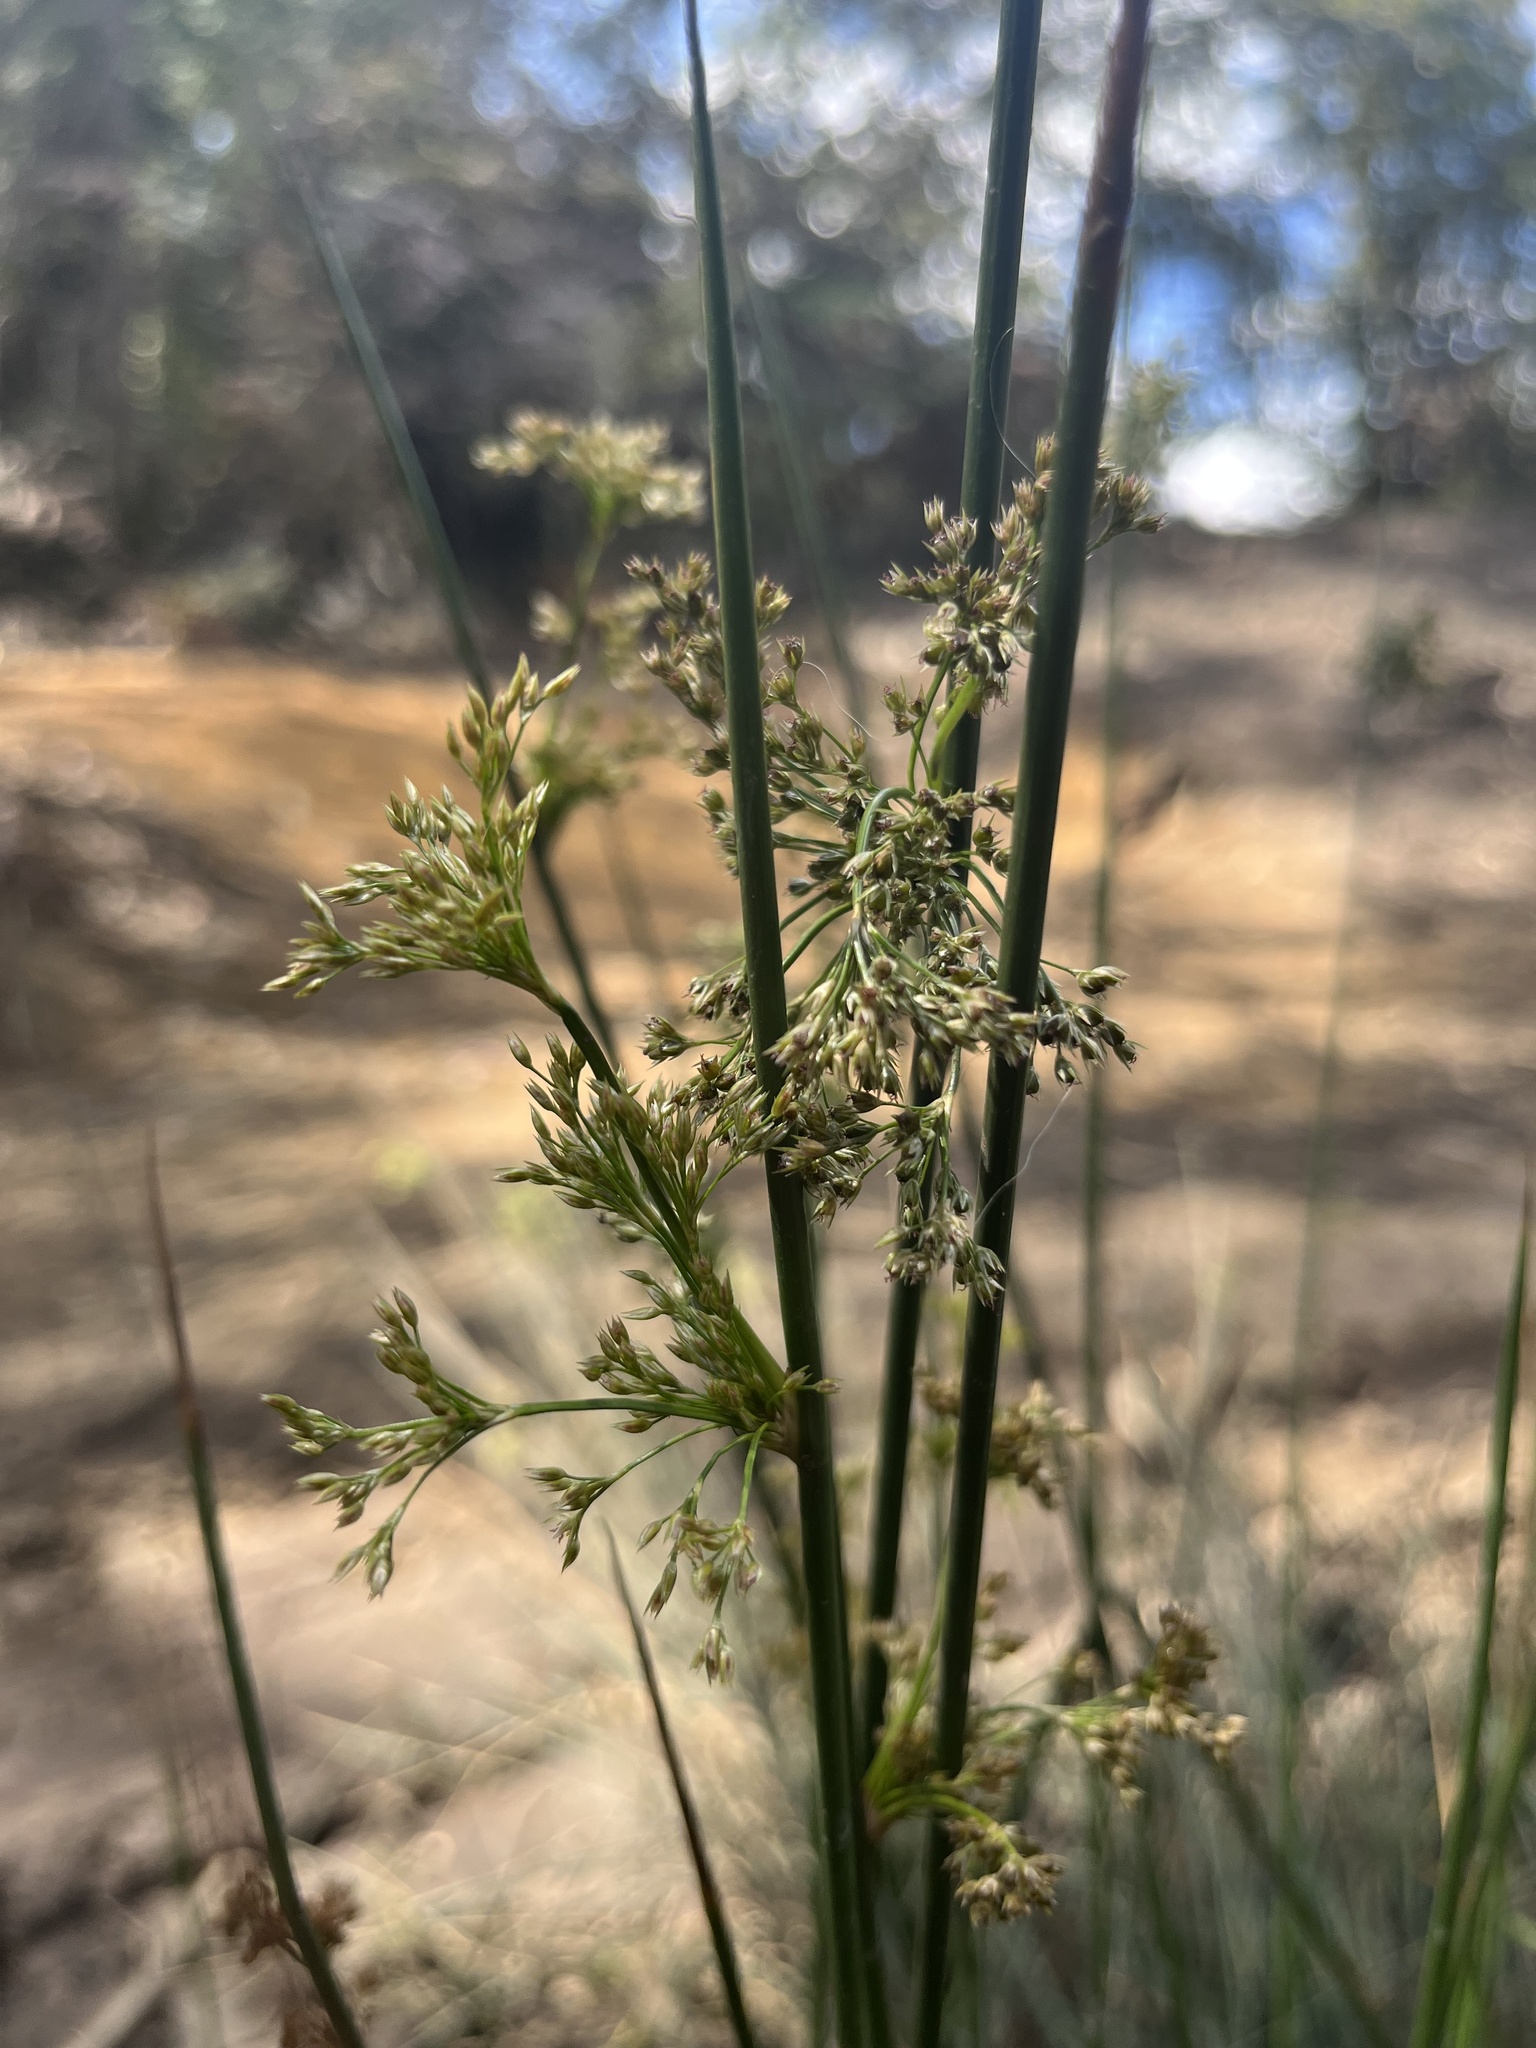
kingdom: Plantae
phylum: Tracheophyta
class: Liliopsida
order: Poales
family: Juncaceae
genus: Juncus
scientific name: Juncus effusus
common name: Soft rush
